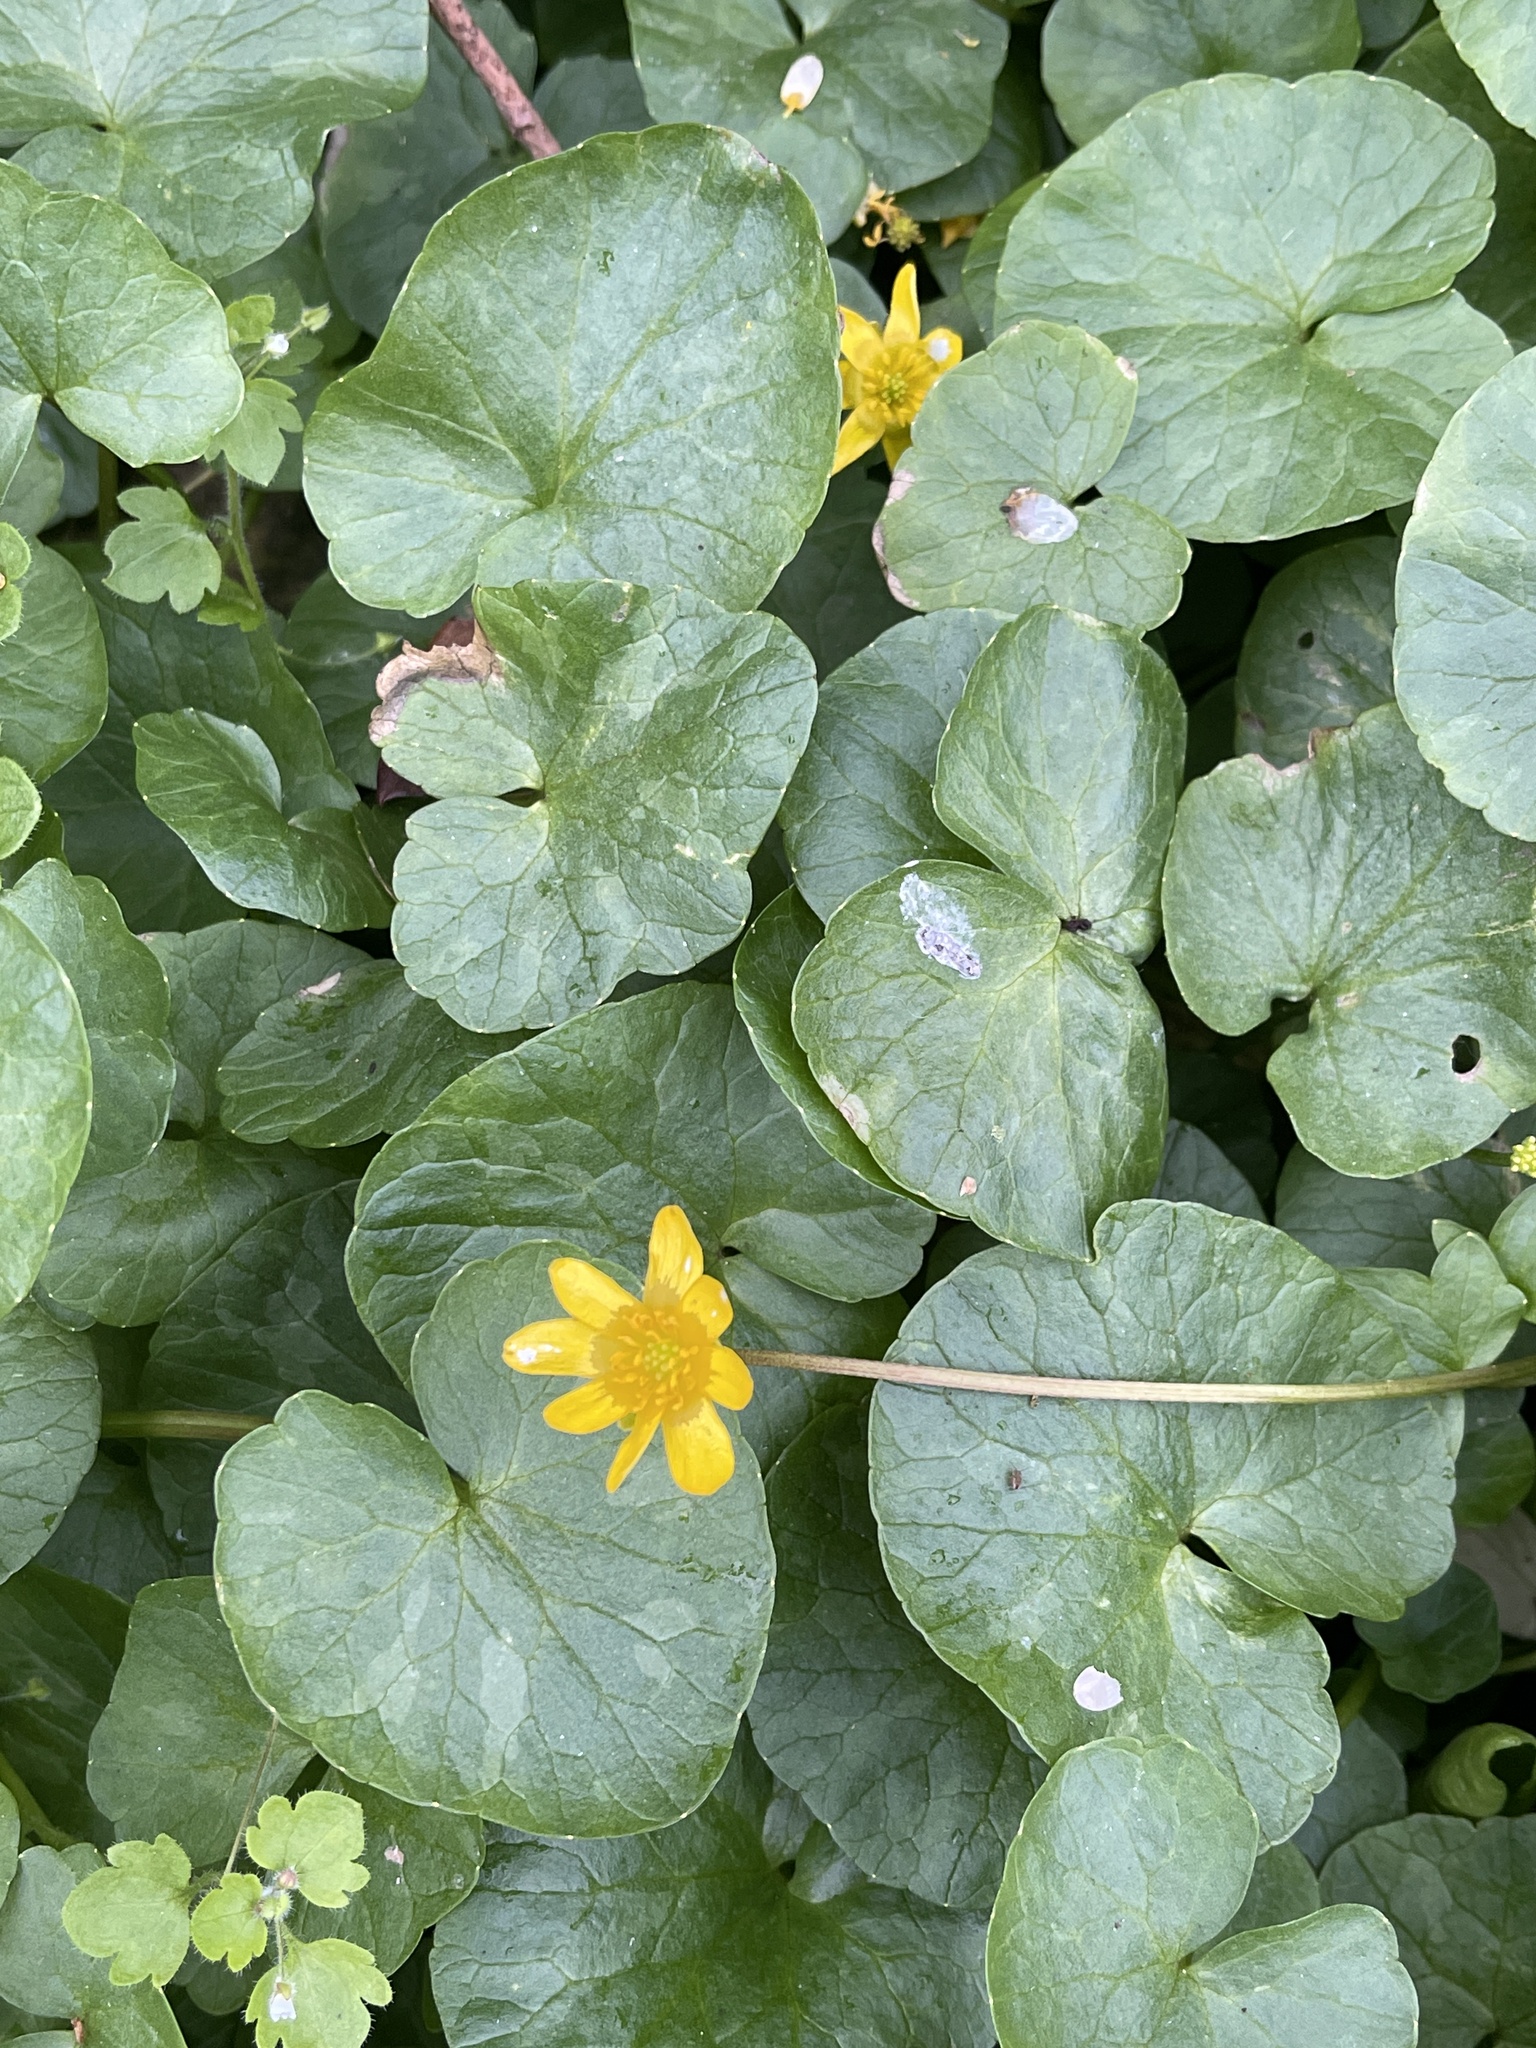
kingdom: Plantae
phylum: Tracheophyta
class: Magnoliopsida
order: Ranunculales
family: Ranunculaceae
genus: Ficaria
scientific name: Ficaria verna
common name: Lesser celandine
